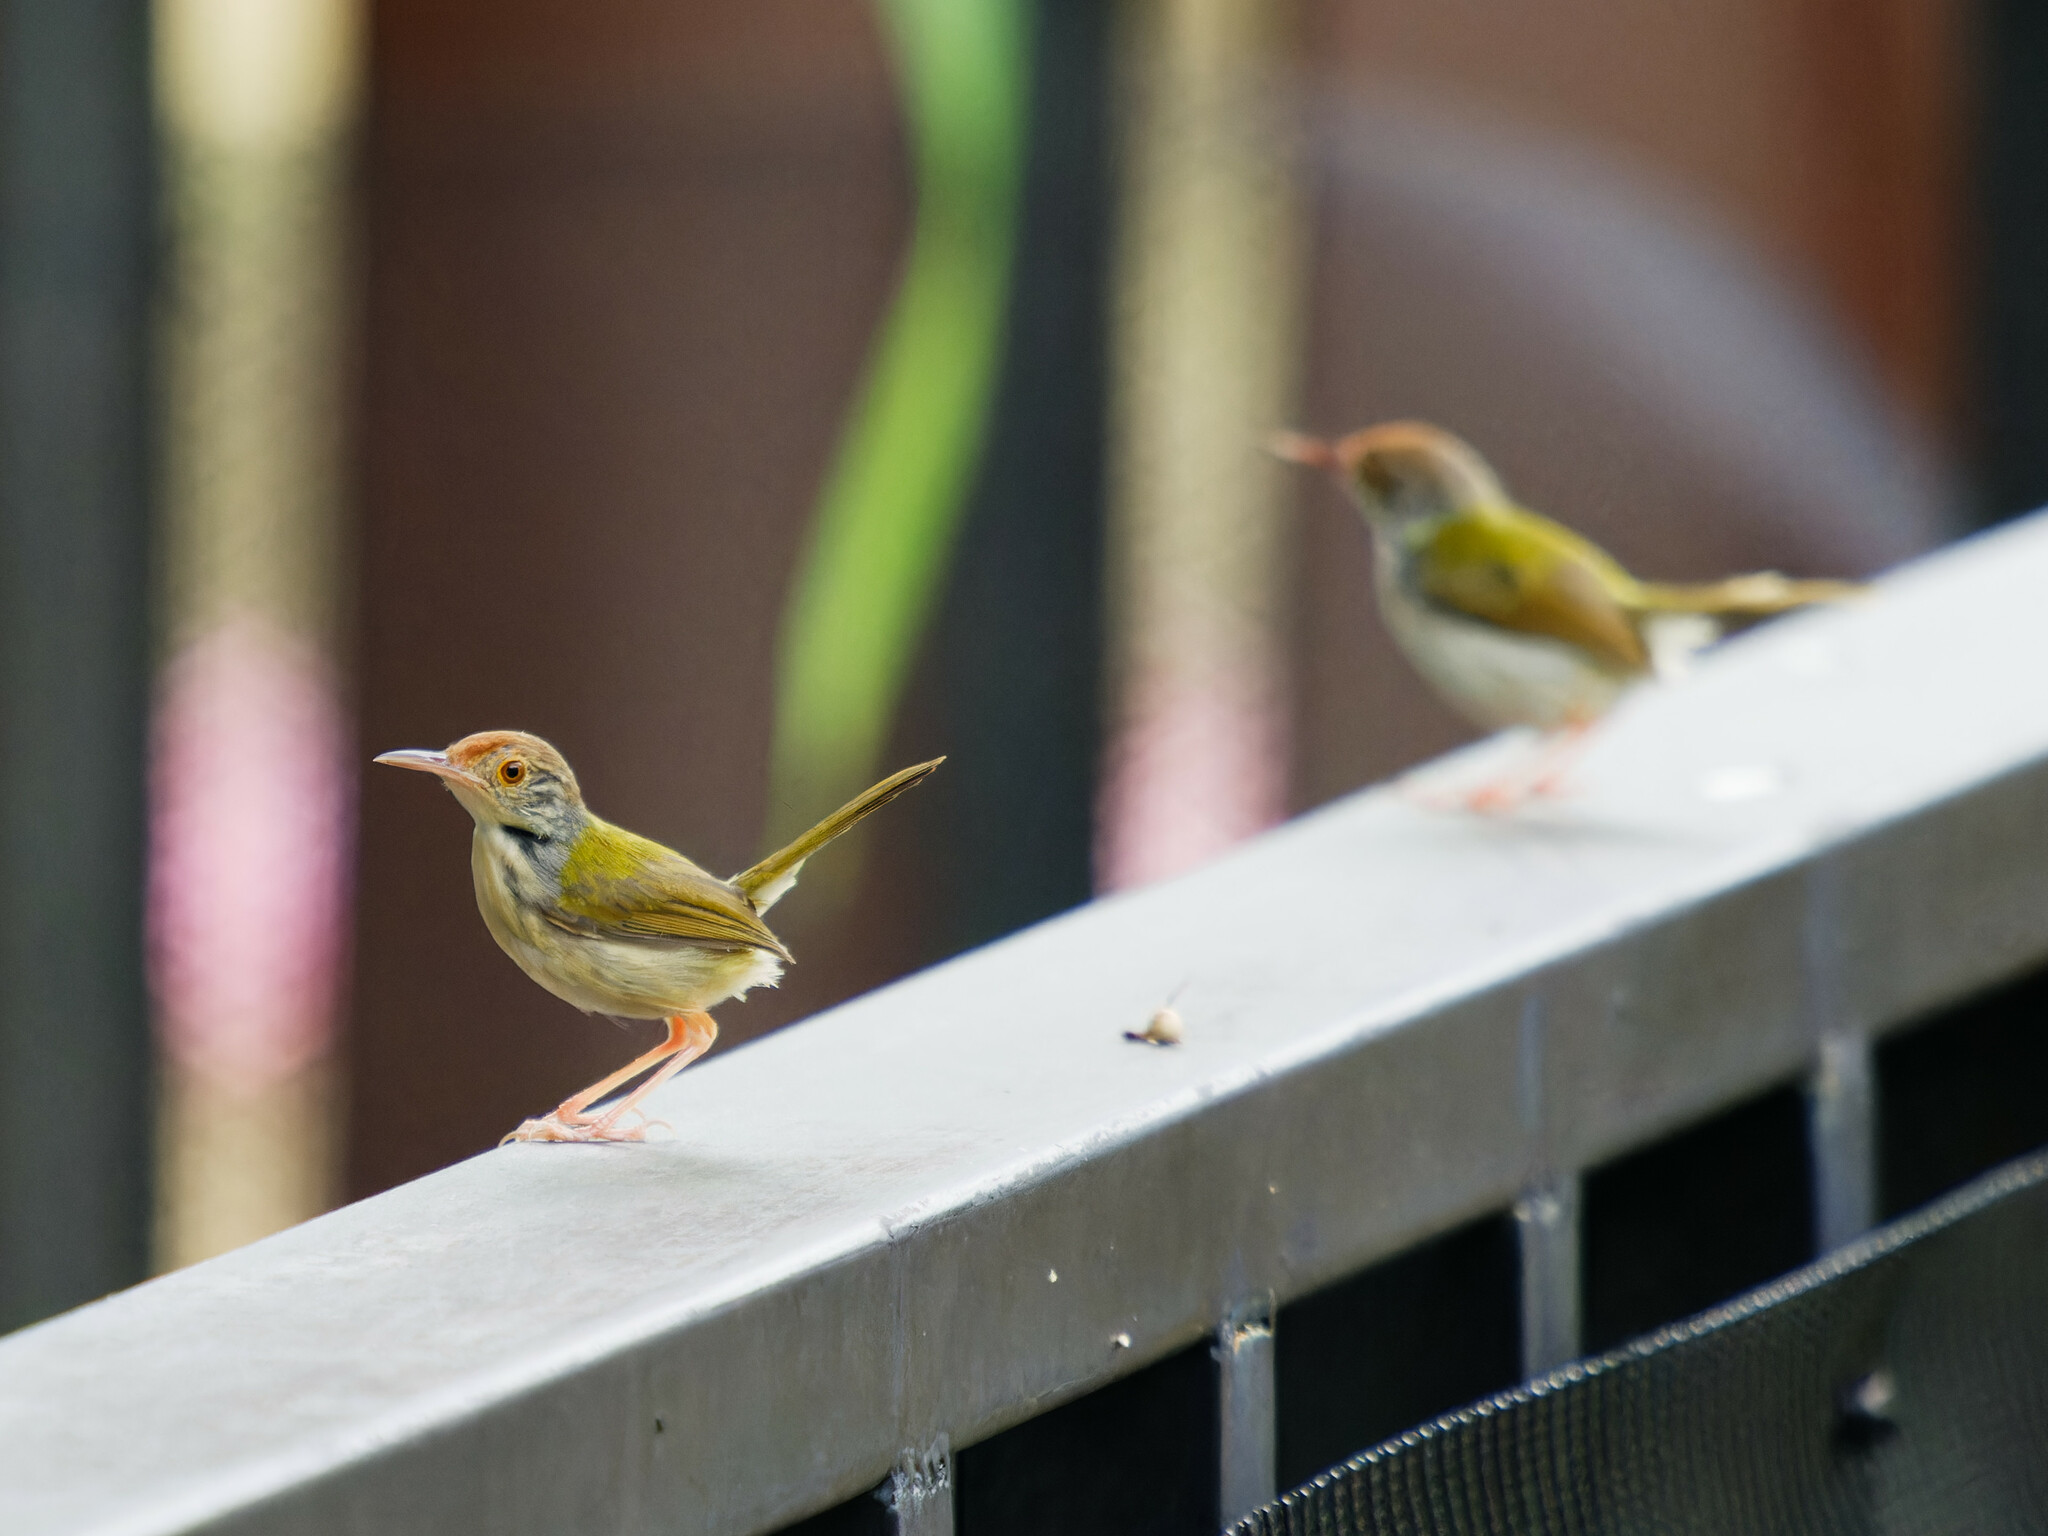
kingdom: Animalia
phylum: Chordata
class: Aves
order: Passeriformes
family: Cisticolidae
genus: Orthotomus
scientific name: Orthotomus sutorius
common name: Common tailorbird
